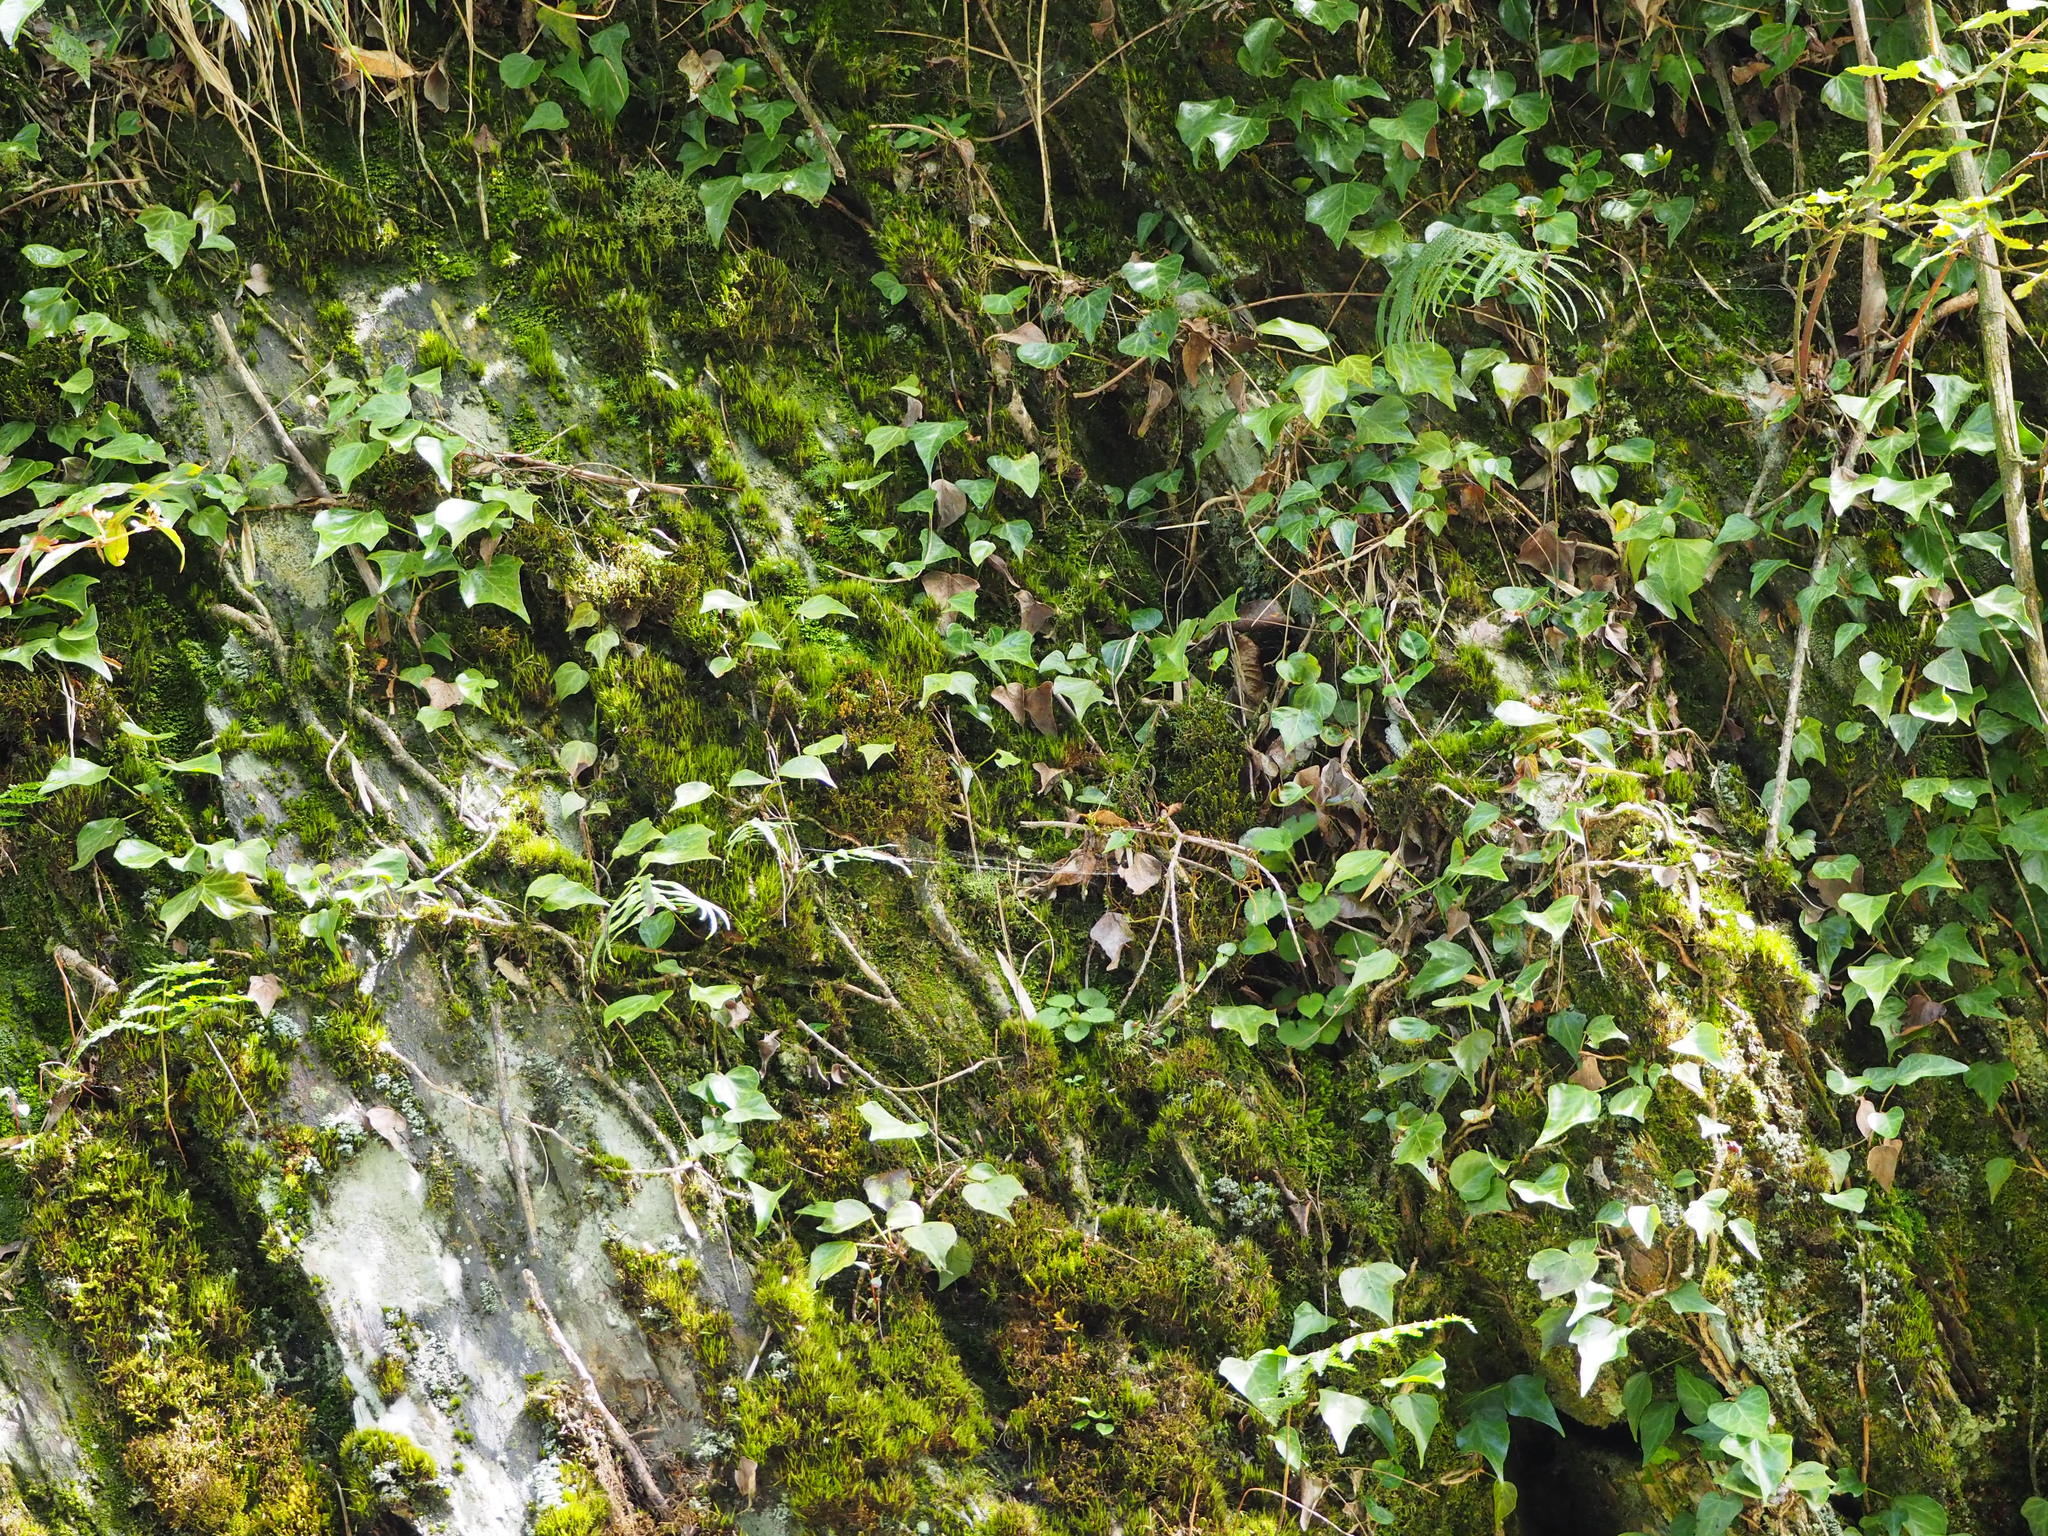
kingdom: Plantae
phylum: Tracheophyta
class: Magnoliopsida
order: Apiales
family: Araliaceae
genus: Hedera
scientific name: Hedera rhombea
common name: Japanese ivy
